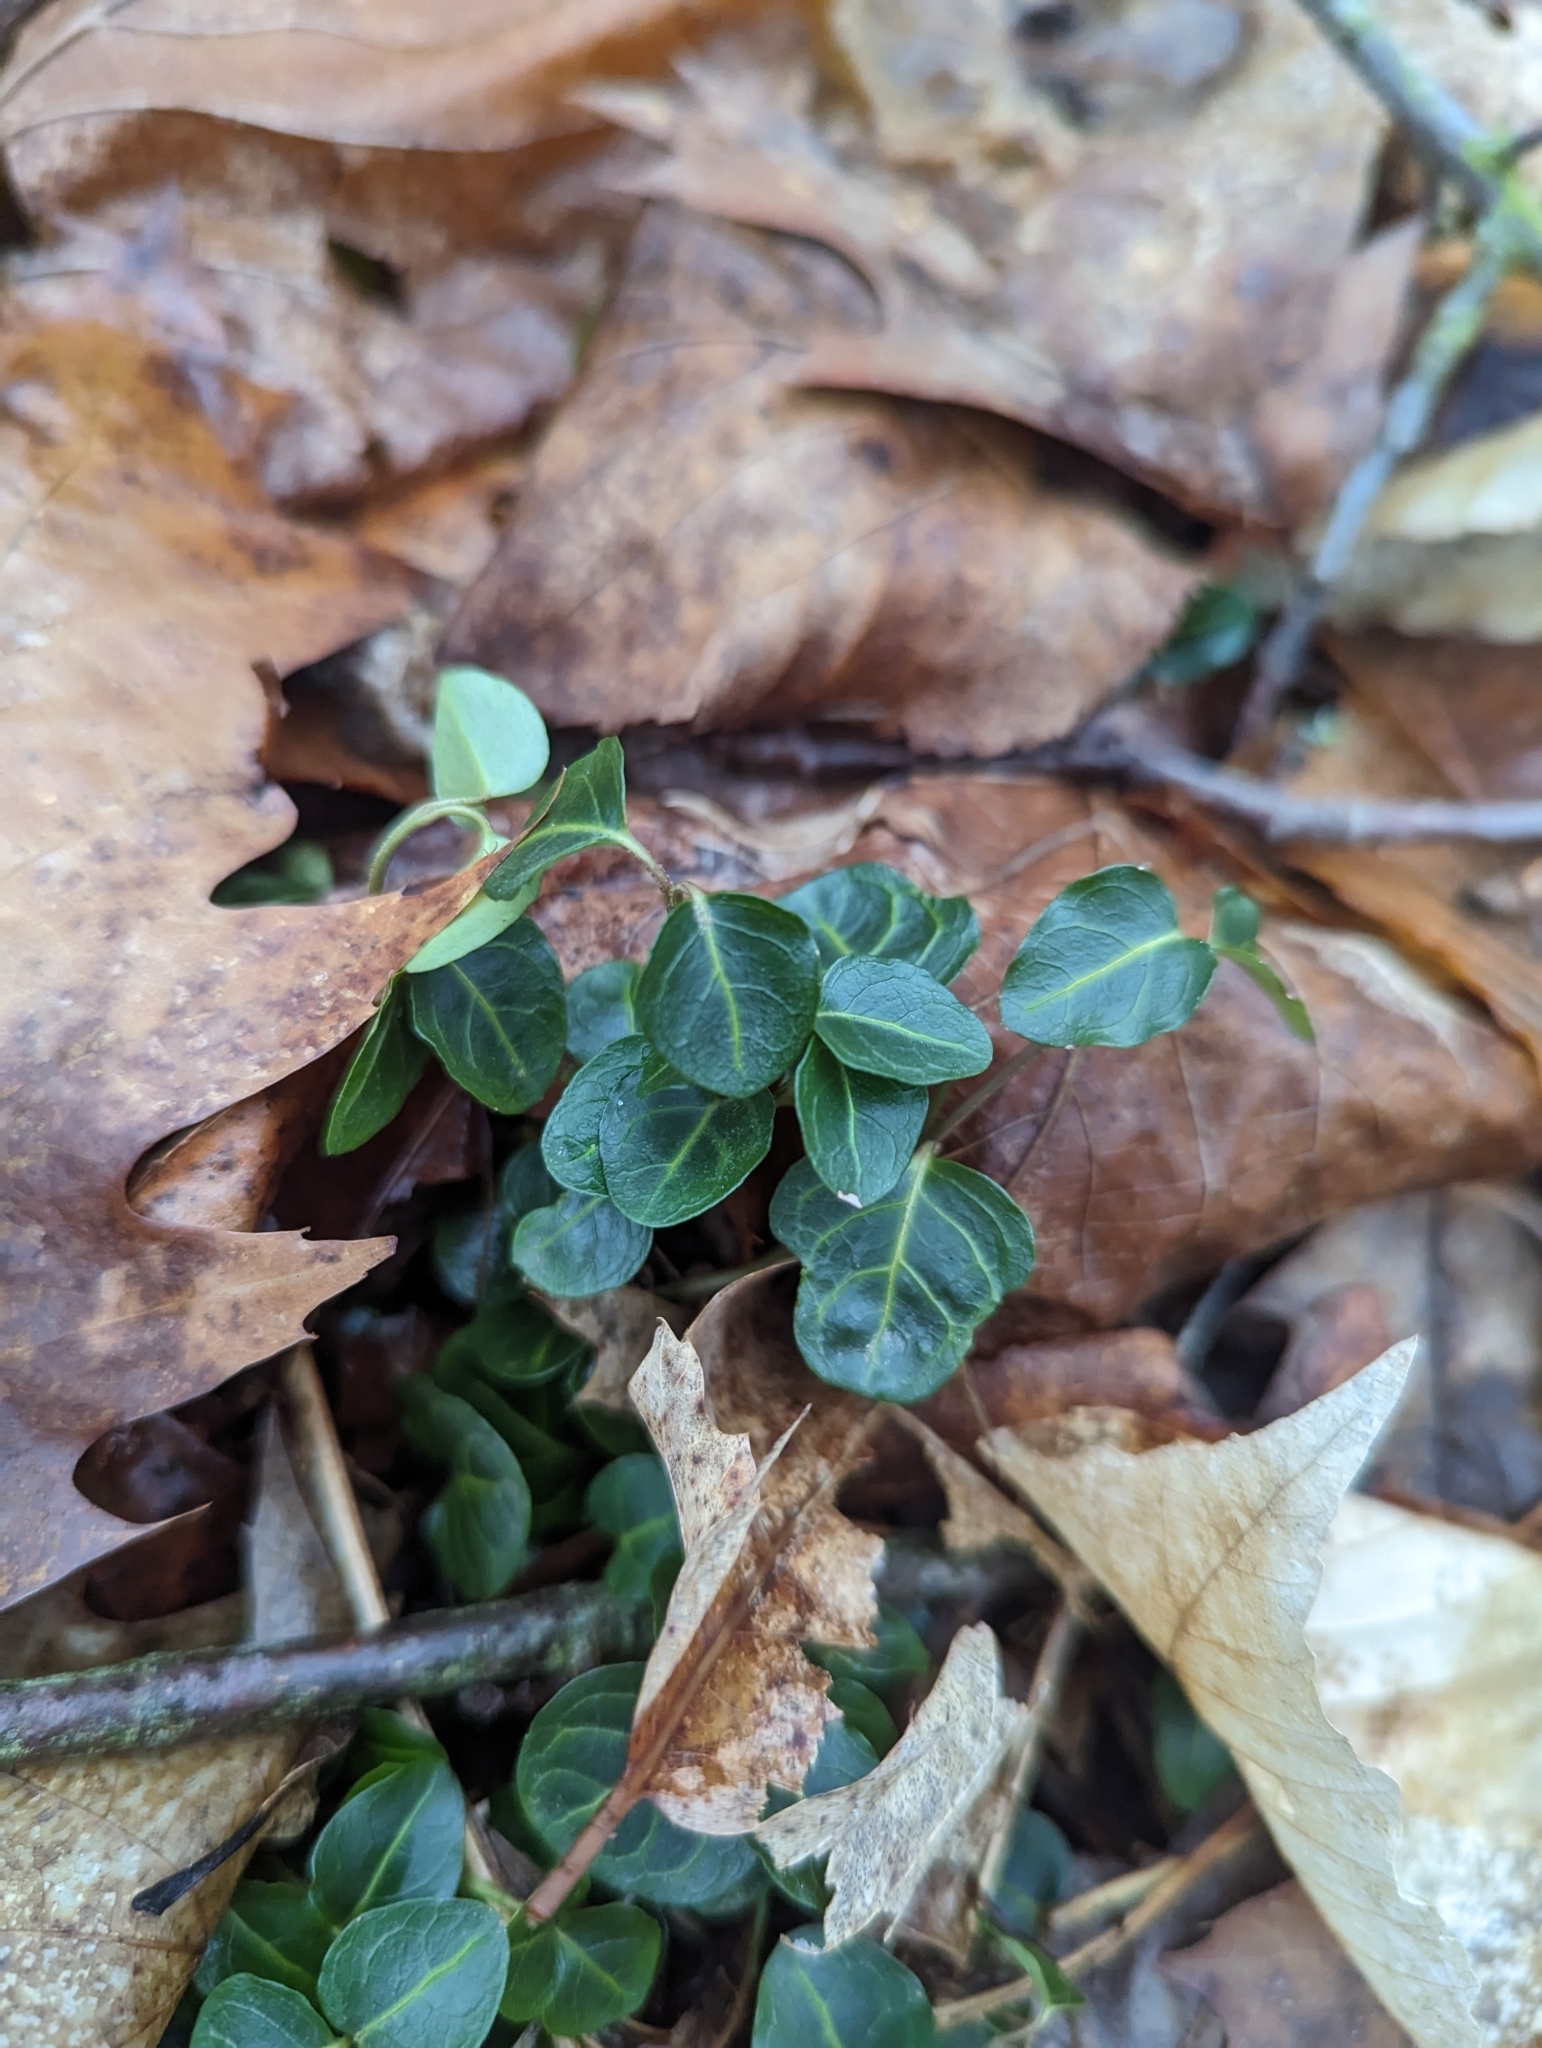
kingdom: Plantae
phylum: Tracheophyta
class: Magnoliopsida
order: Gentianales
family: Rubiaceae
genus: Mitchella
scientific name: Mitchella repens
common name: Partridge-berry
